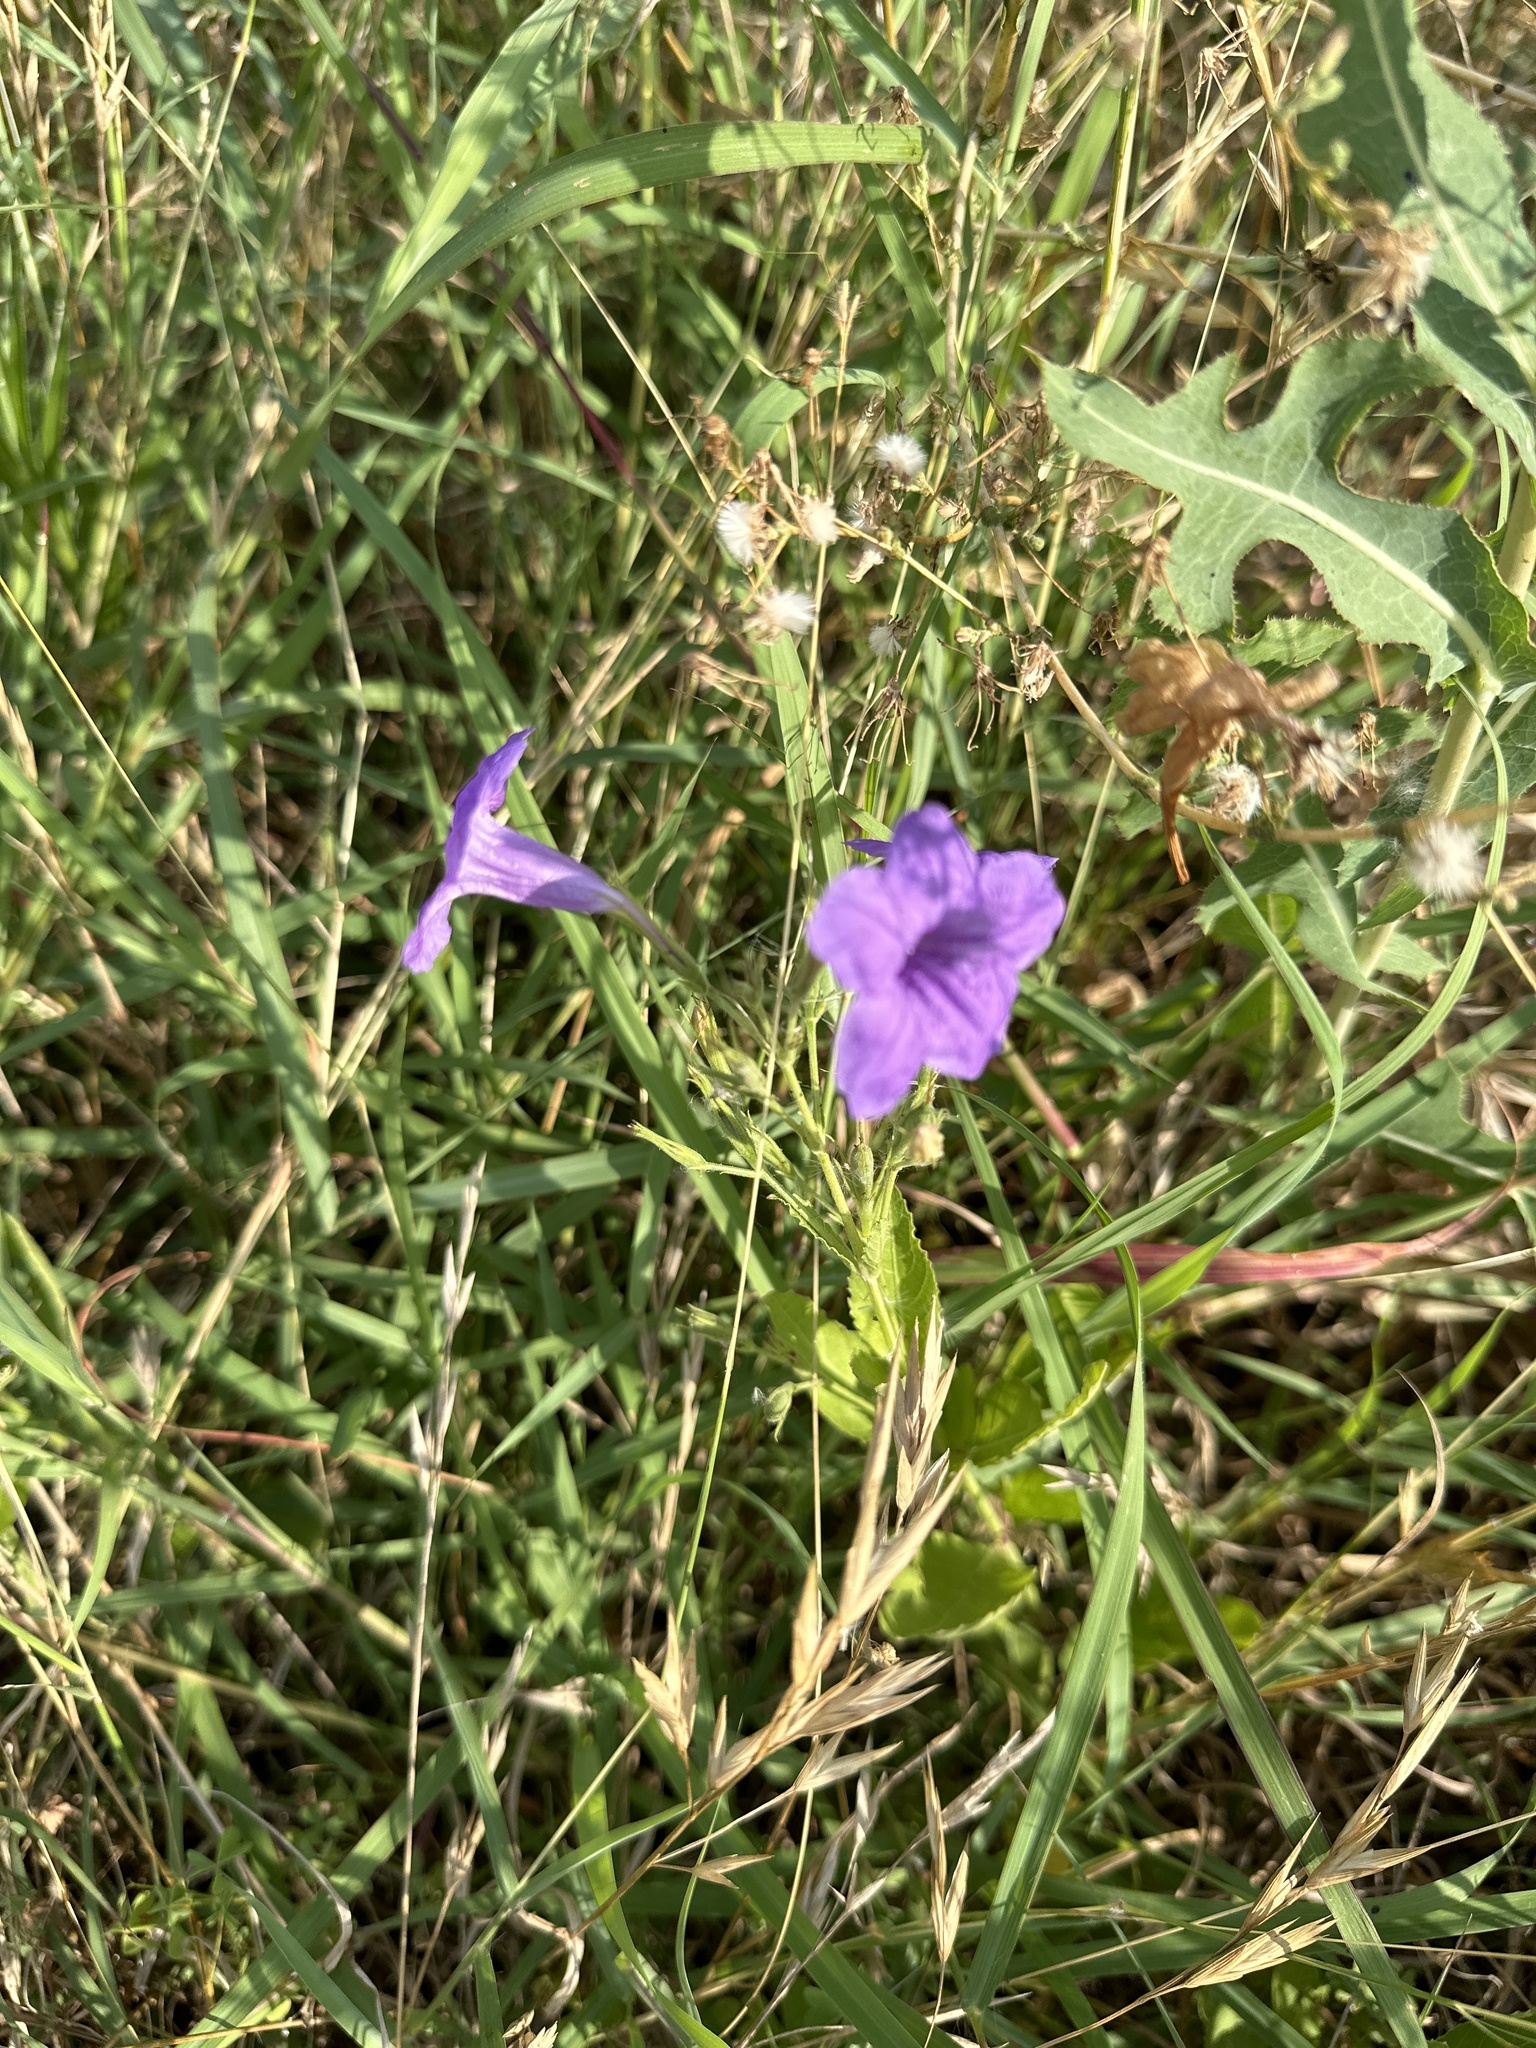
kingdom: Plantae
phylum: Tracheophyta
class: Magnoliopsida
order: Lamiales
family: Acanthaceae
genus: Ruellia
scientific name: Ruellia ciliatiflora
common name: Hairyflower wild petunia
